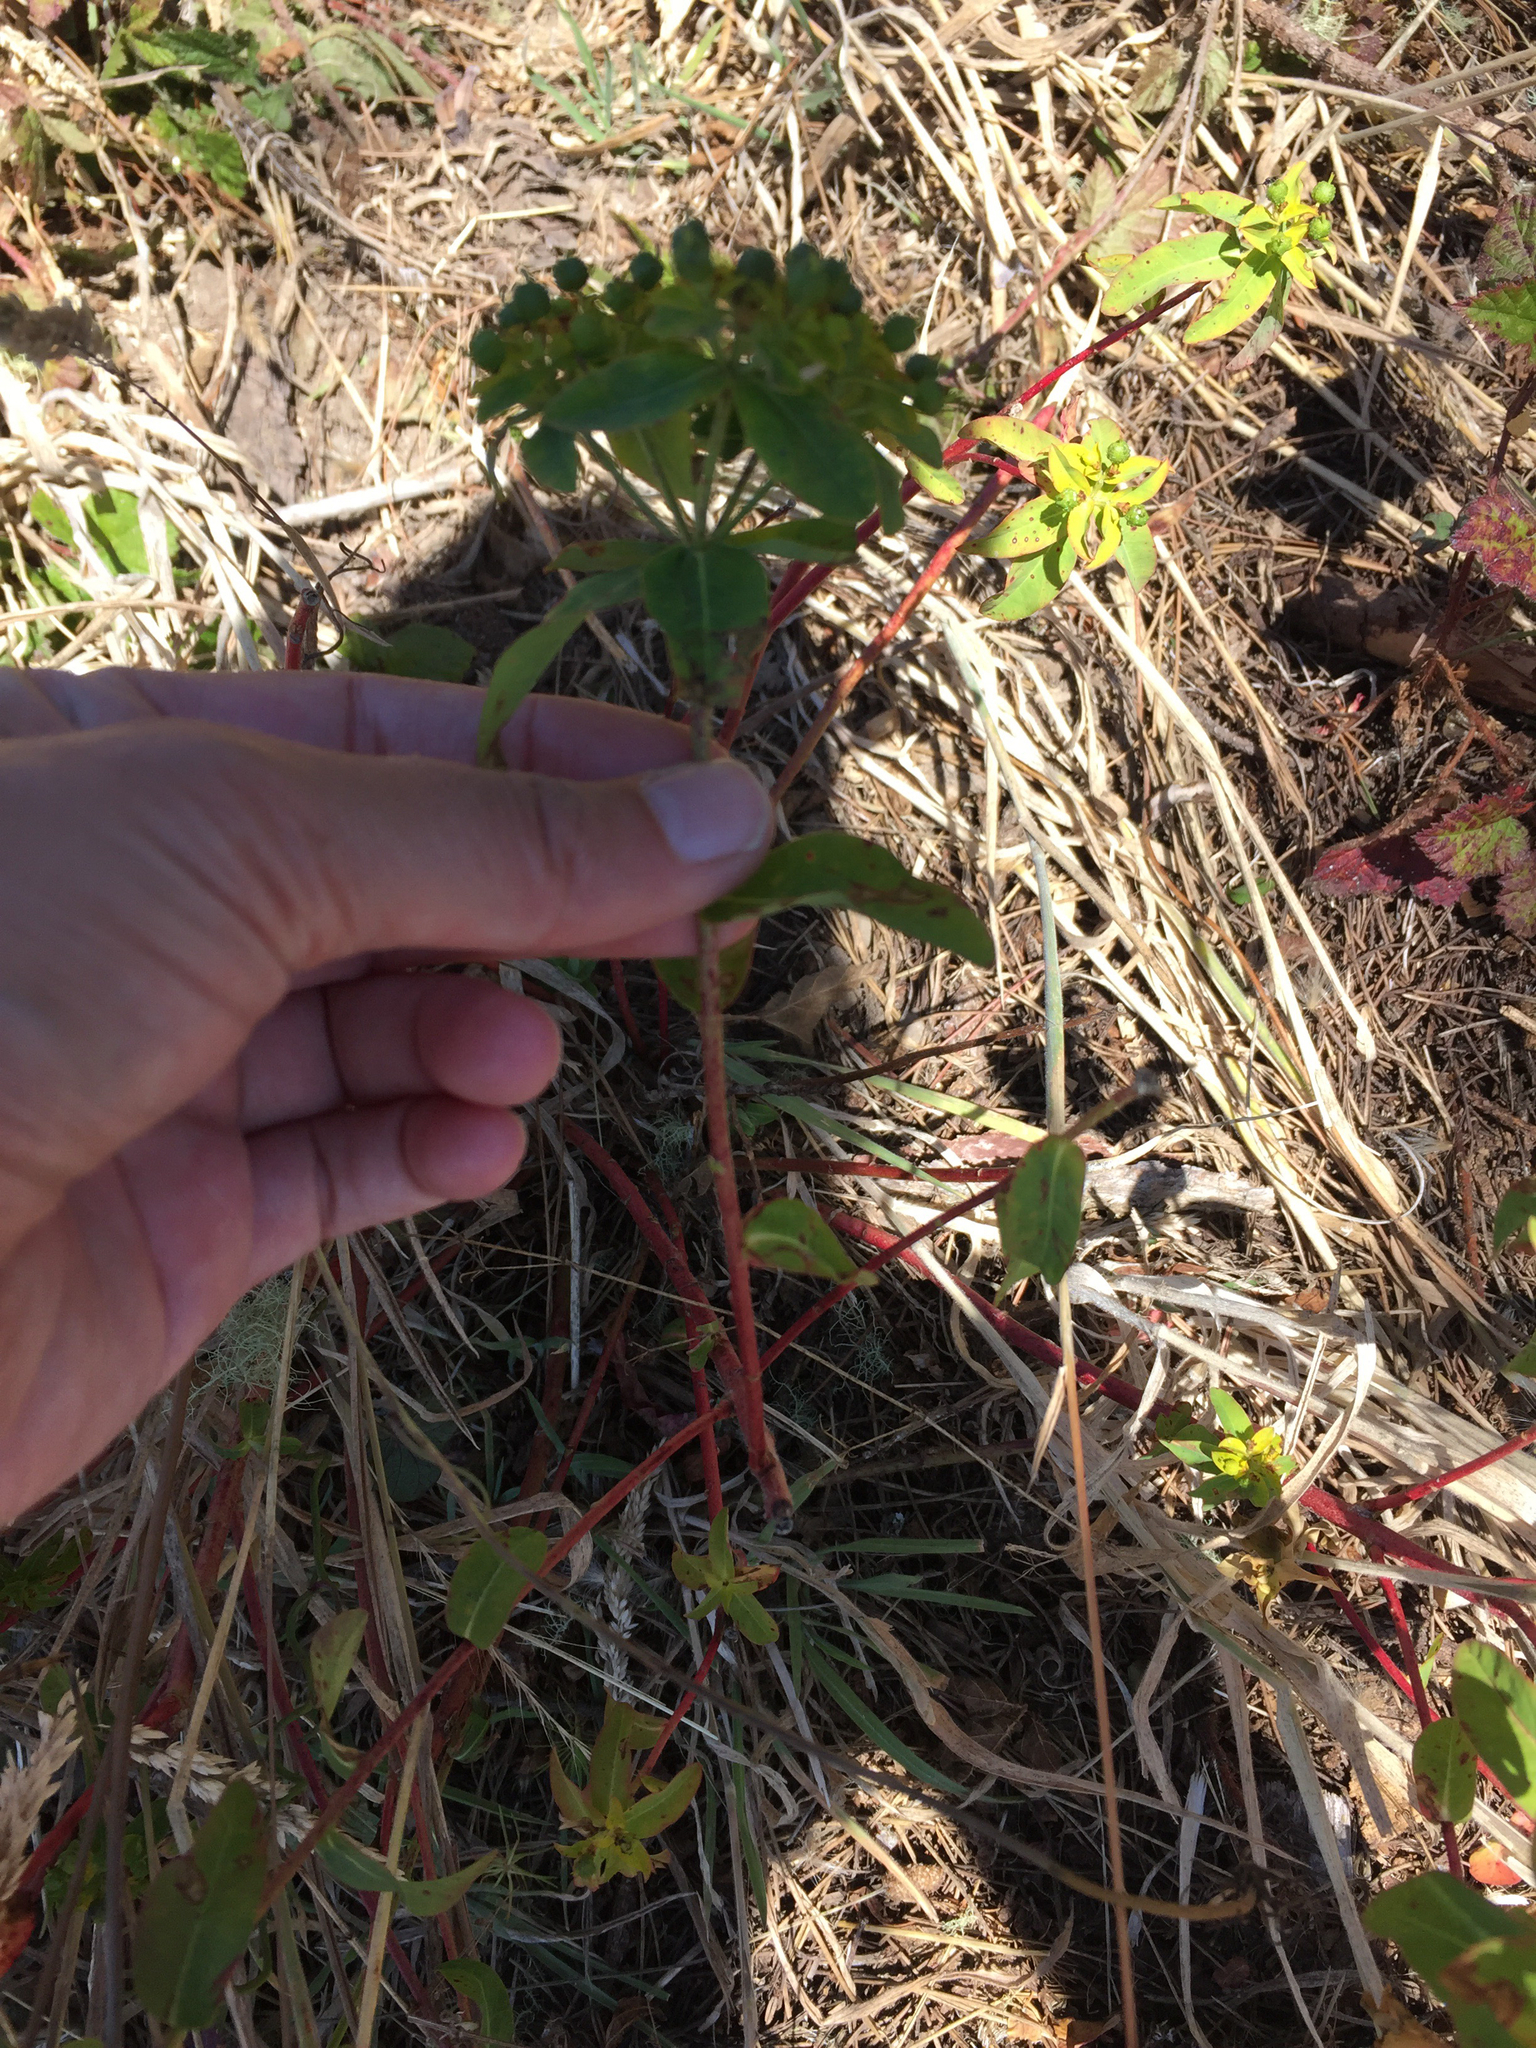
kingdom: Plantae
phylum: Tracheophyta
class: Magnoliopsida
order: Malpighiales
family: Euphorbiaceae
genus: Euphorbia
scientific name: Euphorbia oblongata
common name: Balkan spurge
